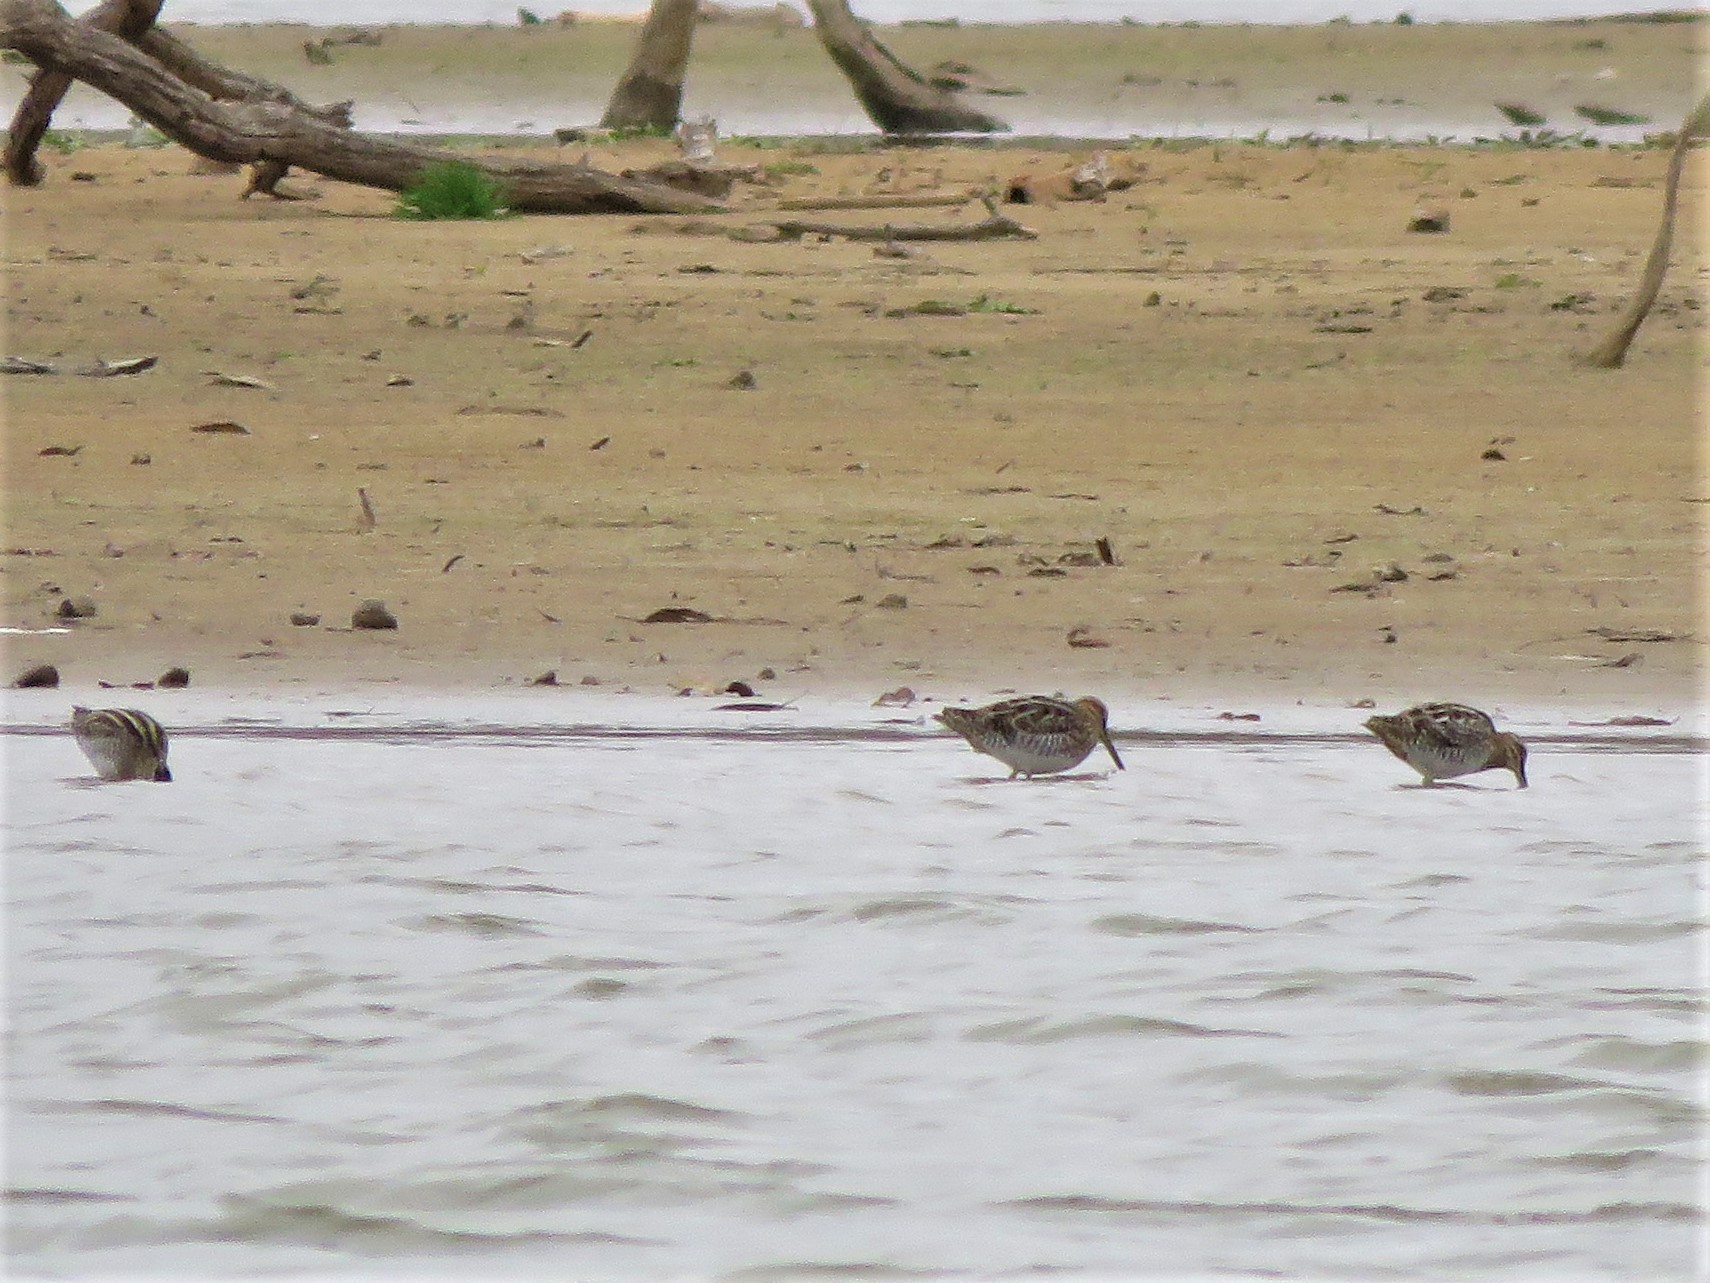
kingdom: Animalia
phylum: Chordata
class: Aves
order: Charadriiformes
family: Scolopacidae
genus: Gallinago
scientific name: Gallinago delicata
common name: Wilson's snipe
